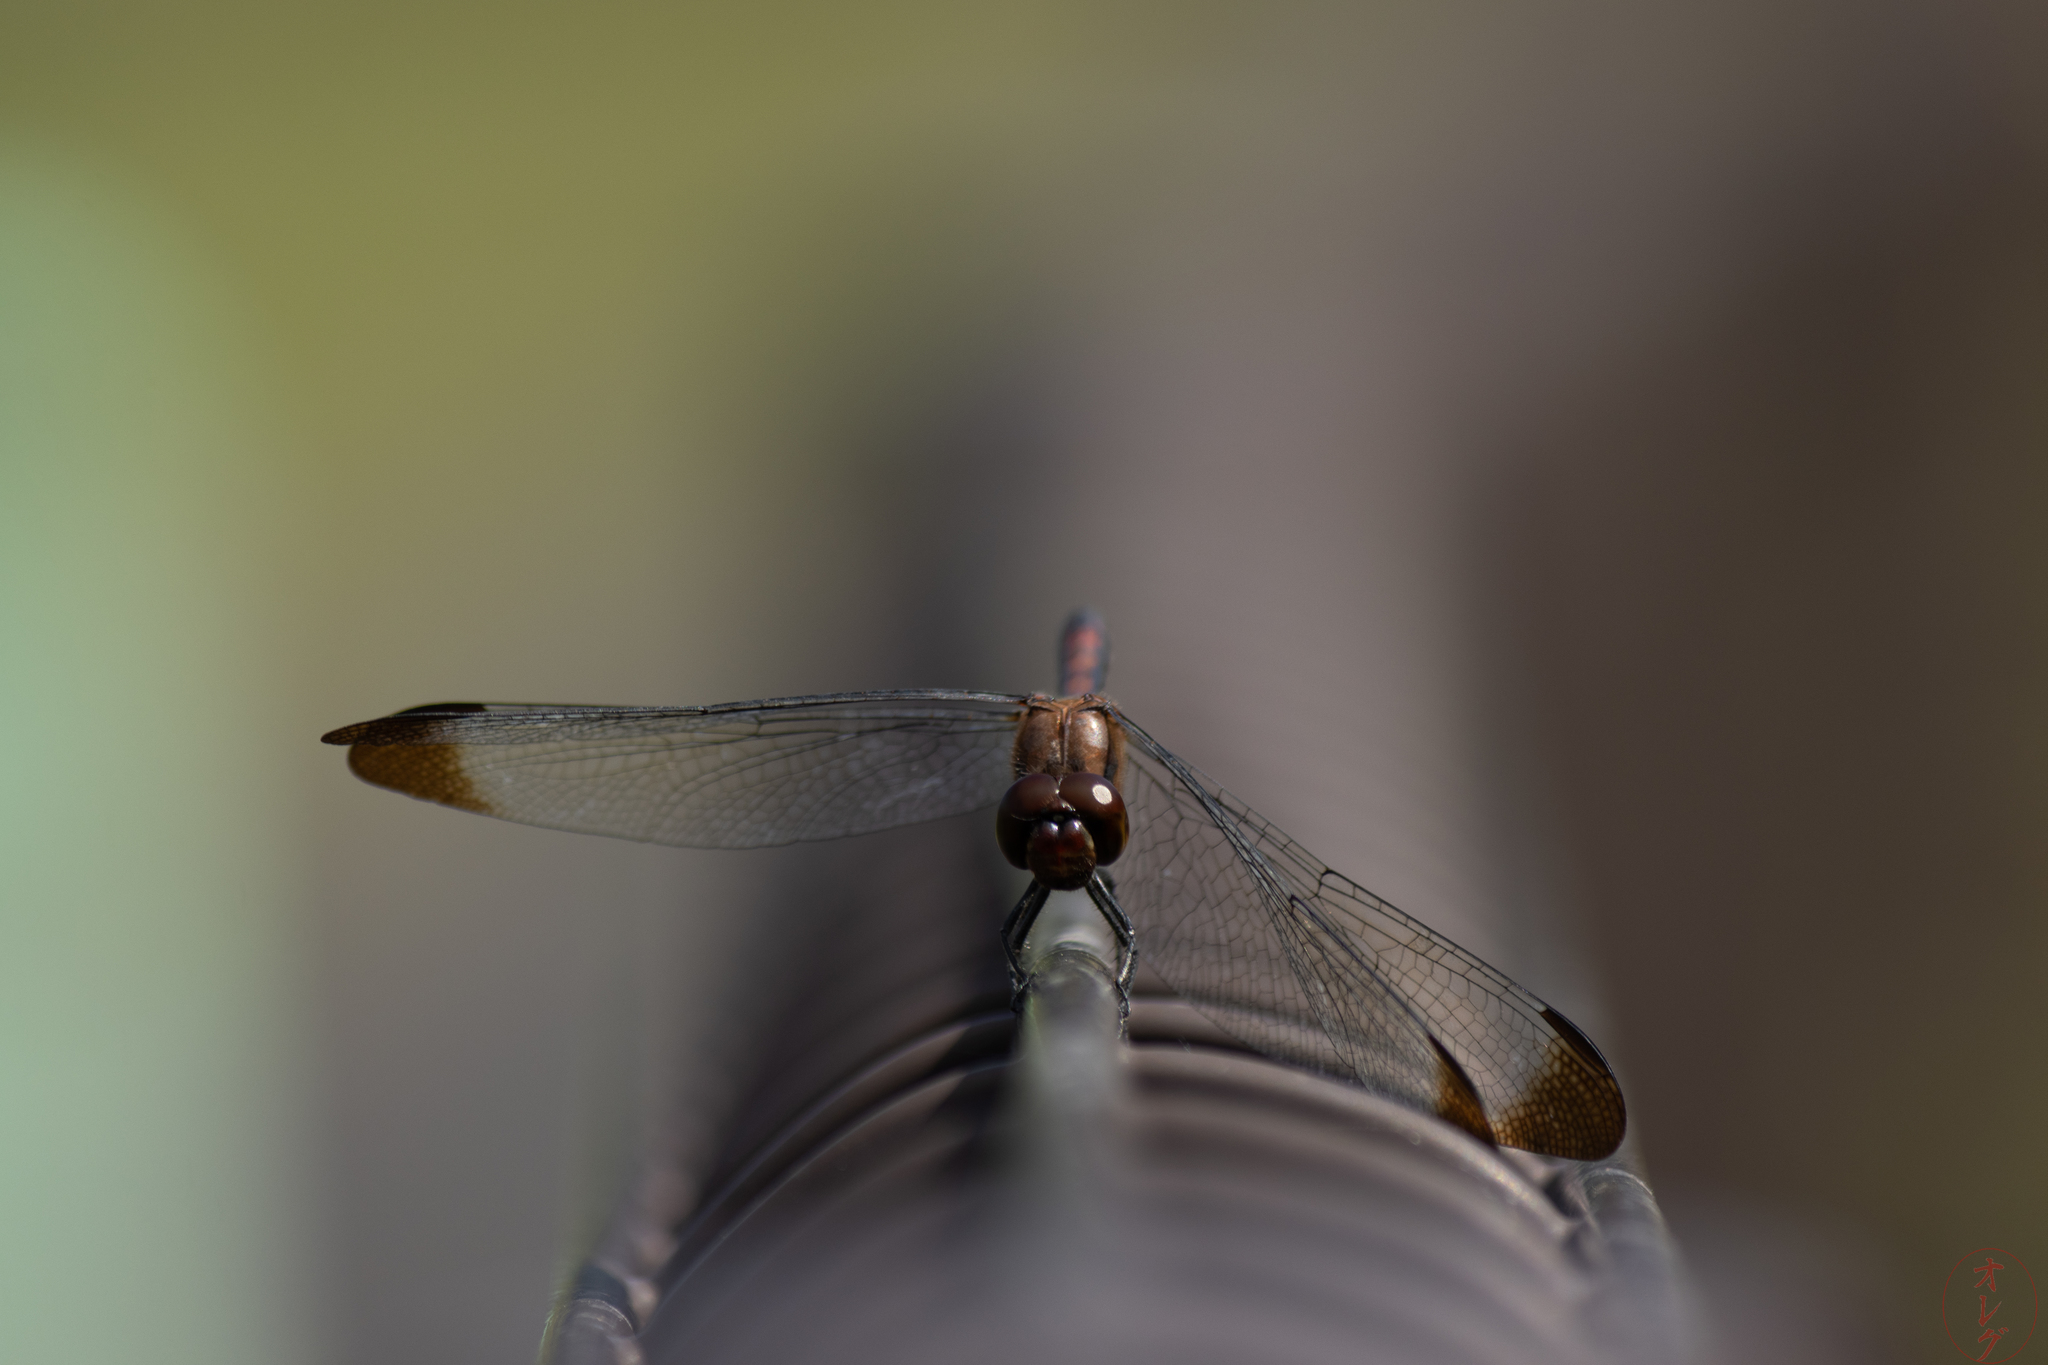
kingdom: Animalia
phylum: Arthropoda
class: Insecta
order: Odonata
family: Libellulidae
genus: Sympetrum
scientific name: Sympetrum infuscatum
